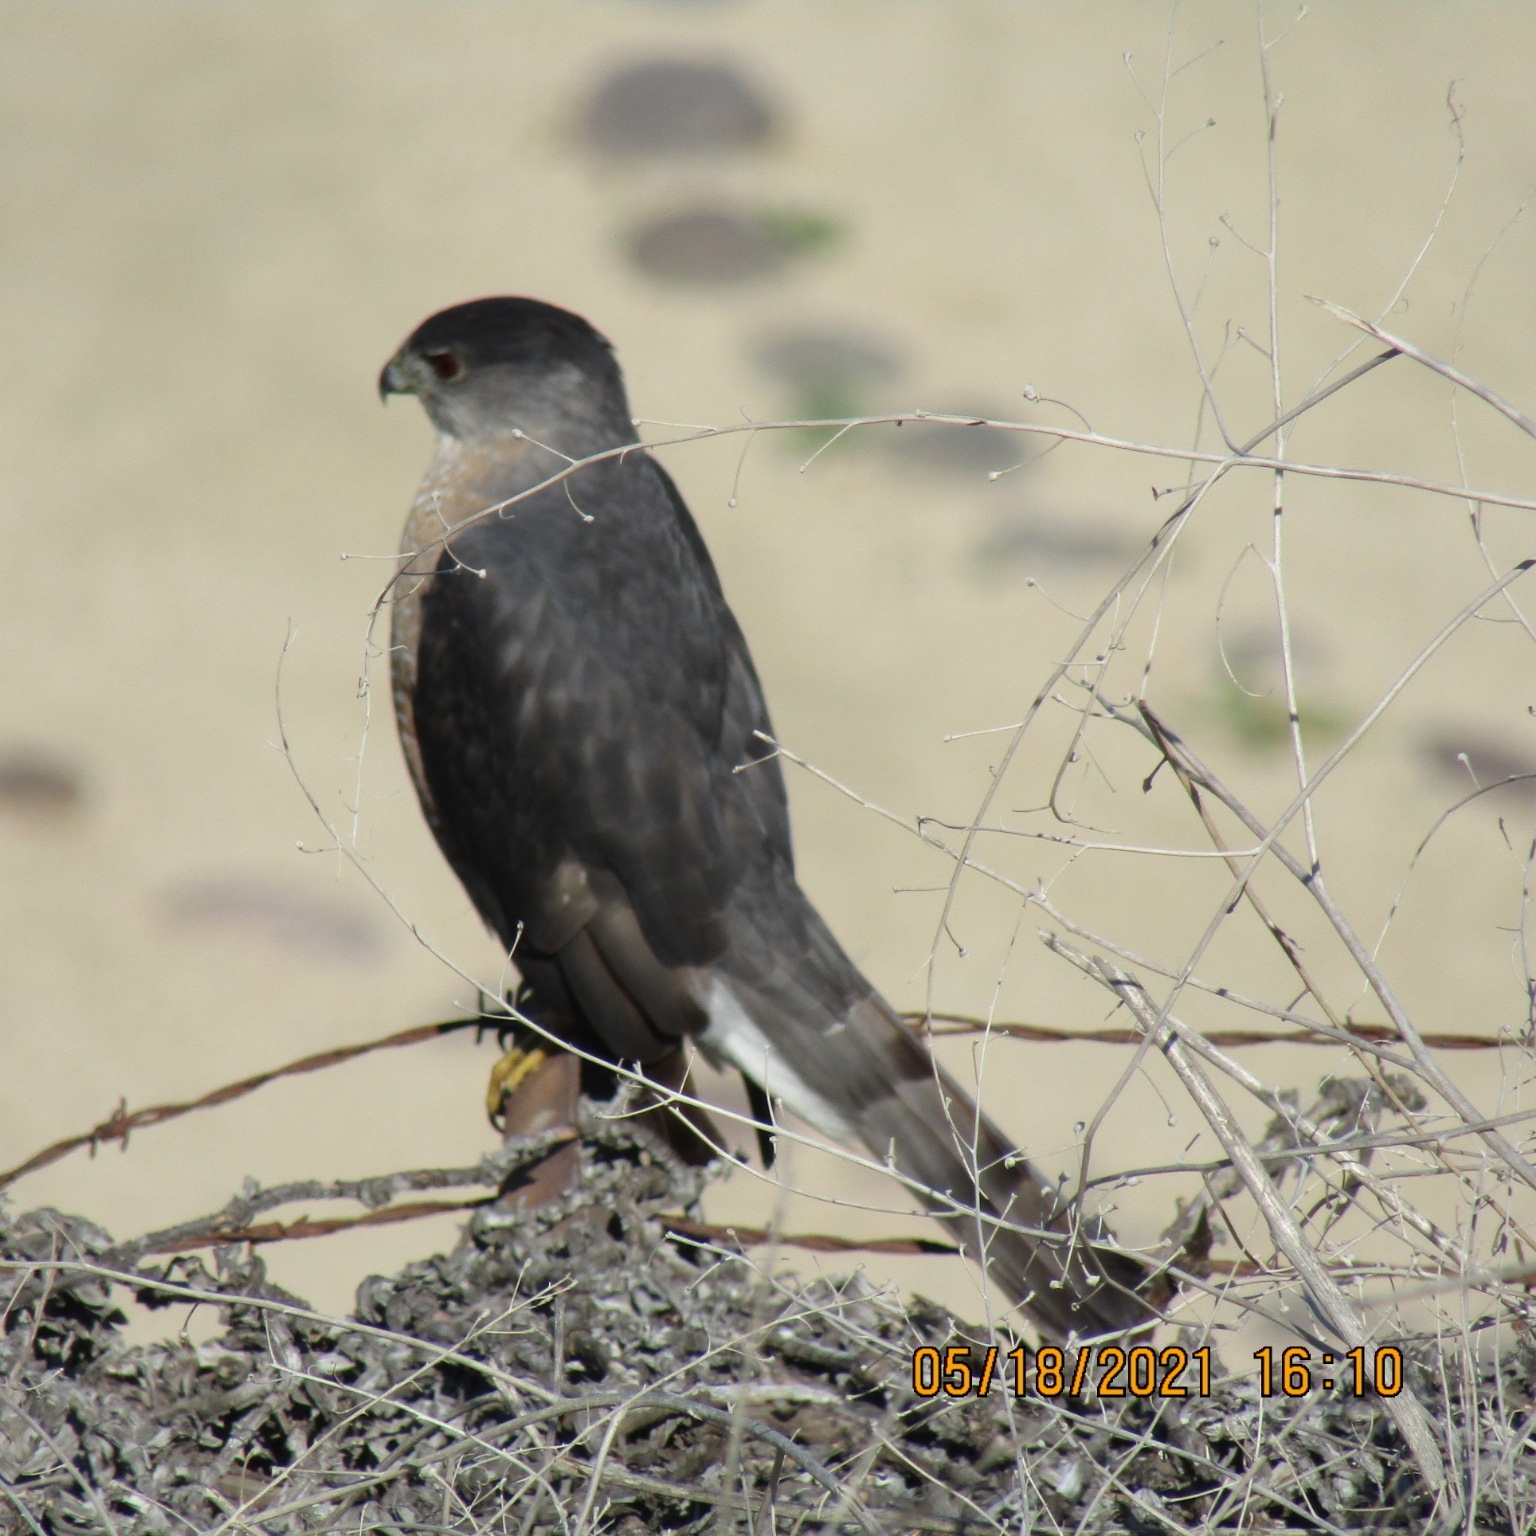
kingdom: Animalia
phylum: Chordata
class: Aves
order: Accipitriformes
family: Accipitridae
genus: Accipiter
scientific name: Accipiter cooperii
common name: Cooper's hawk
